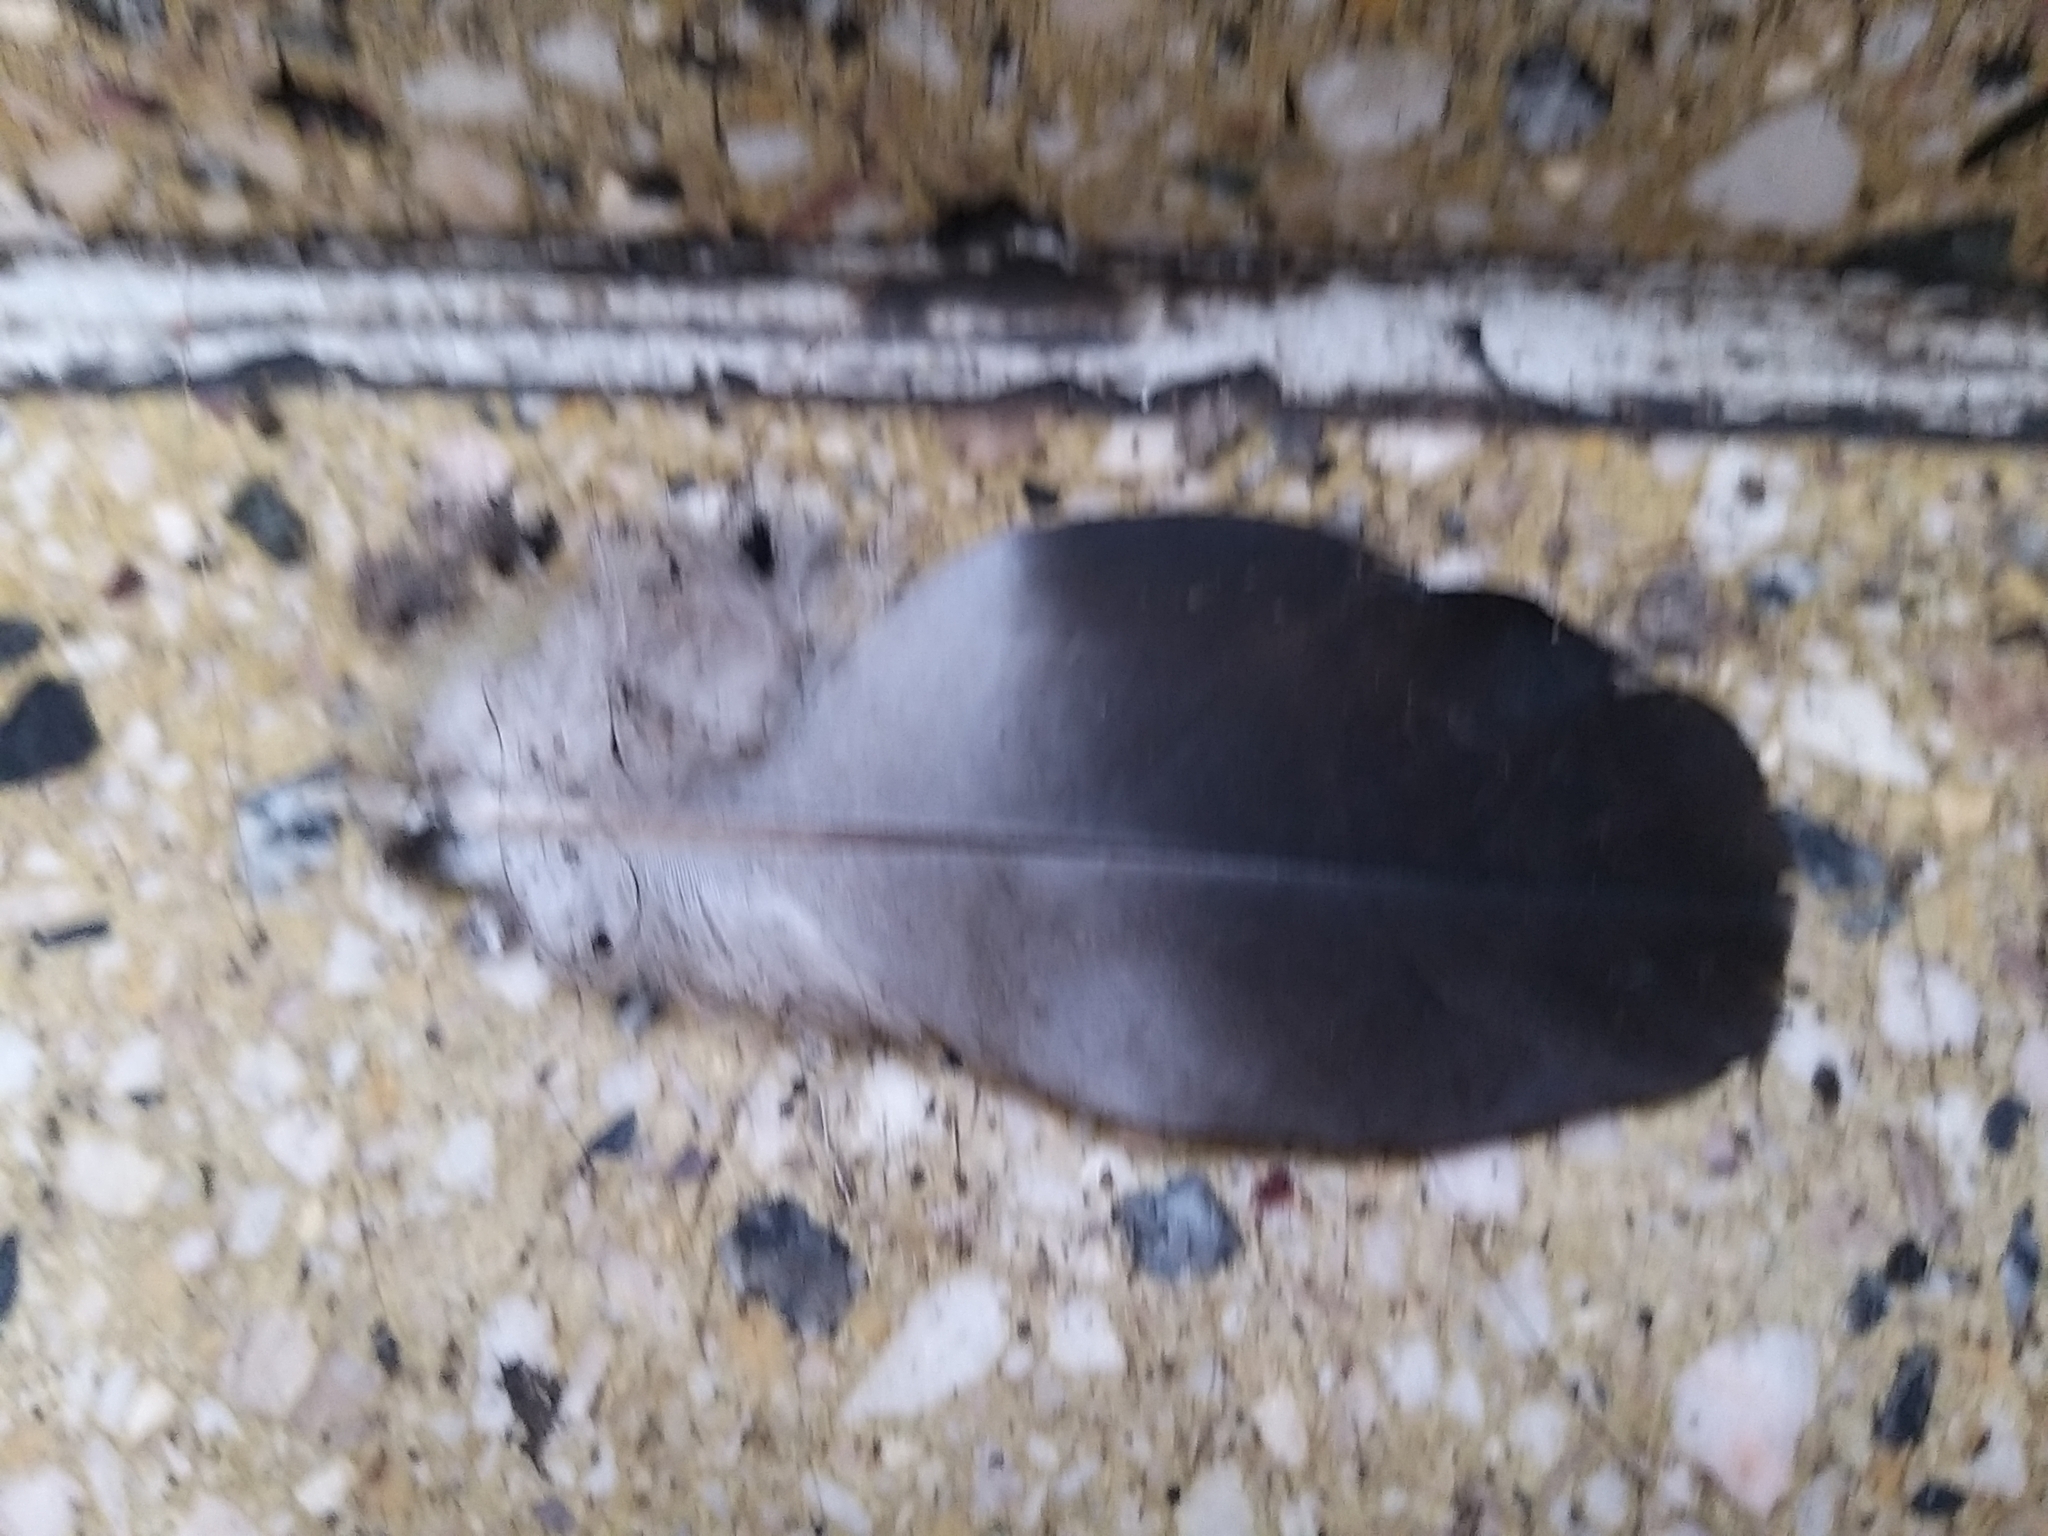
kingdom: Animalia
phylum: Chordata
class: Aves
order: Columbiformes
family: Columbidae
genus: Columba
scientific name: Columba livia
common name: Rock pigeon
